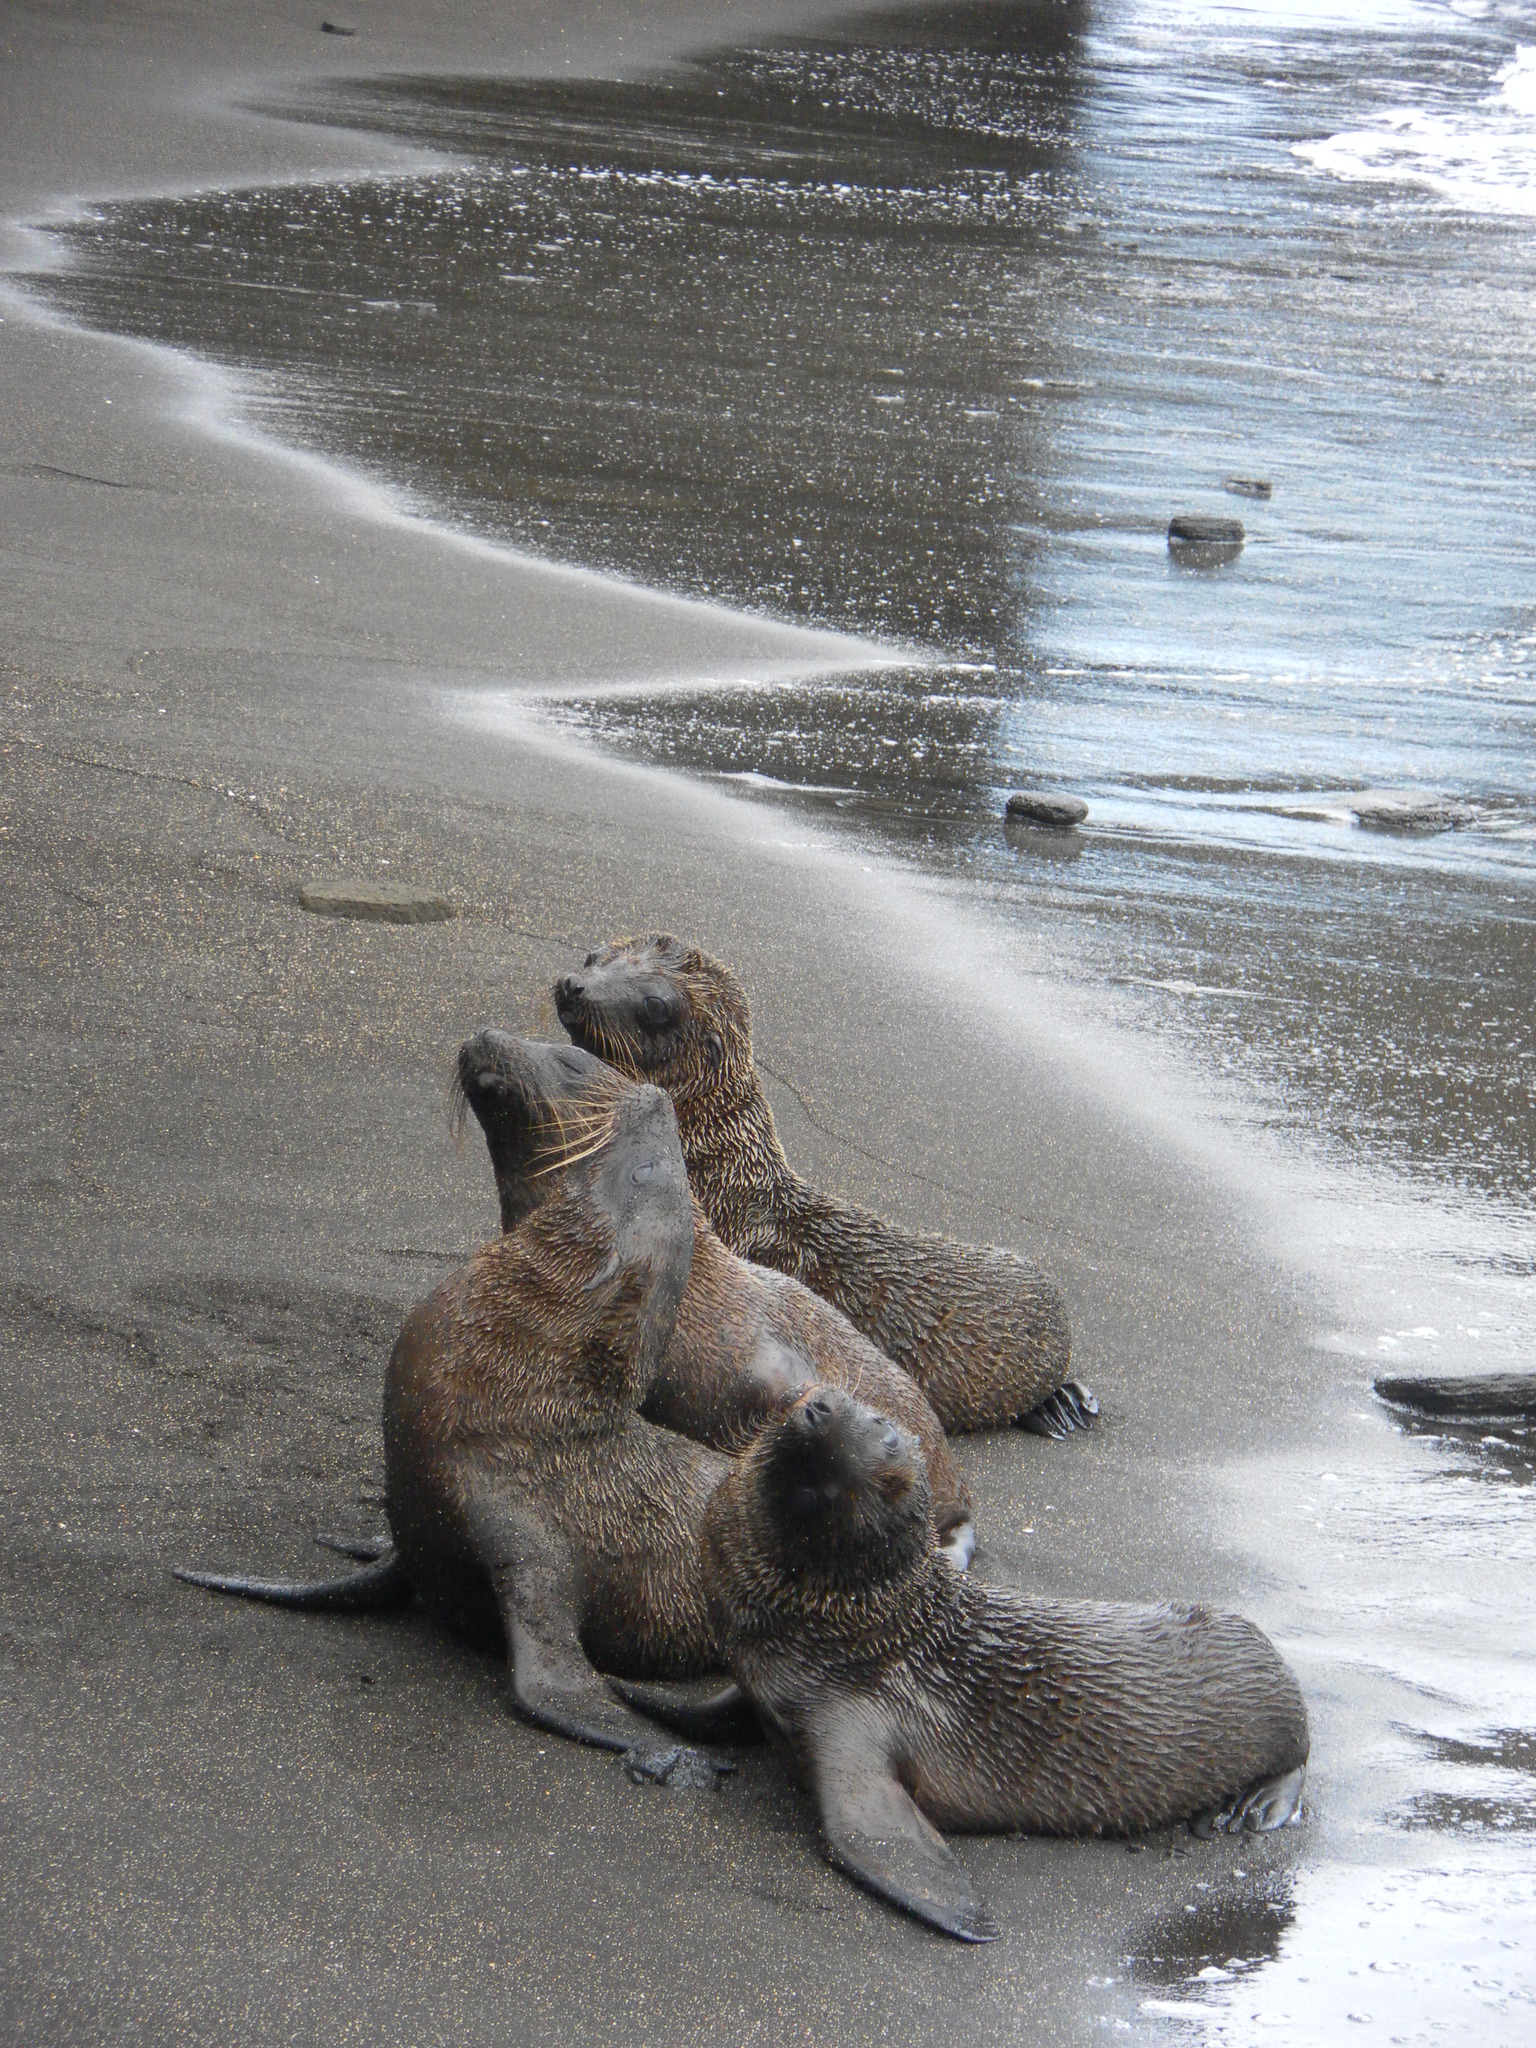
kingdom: Animalia
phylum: Chordata
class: Mammalia
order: Carnivora
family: Otariidae
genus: Zalophus
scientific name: Zalophus wollebaeki
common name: Galapagos sea lion
